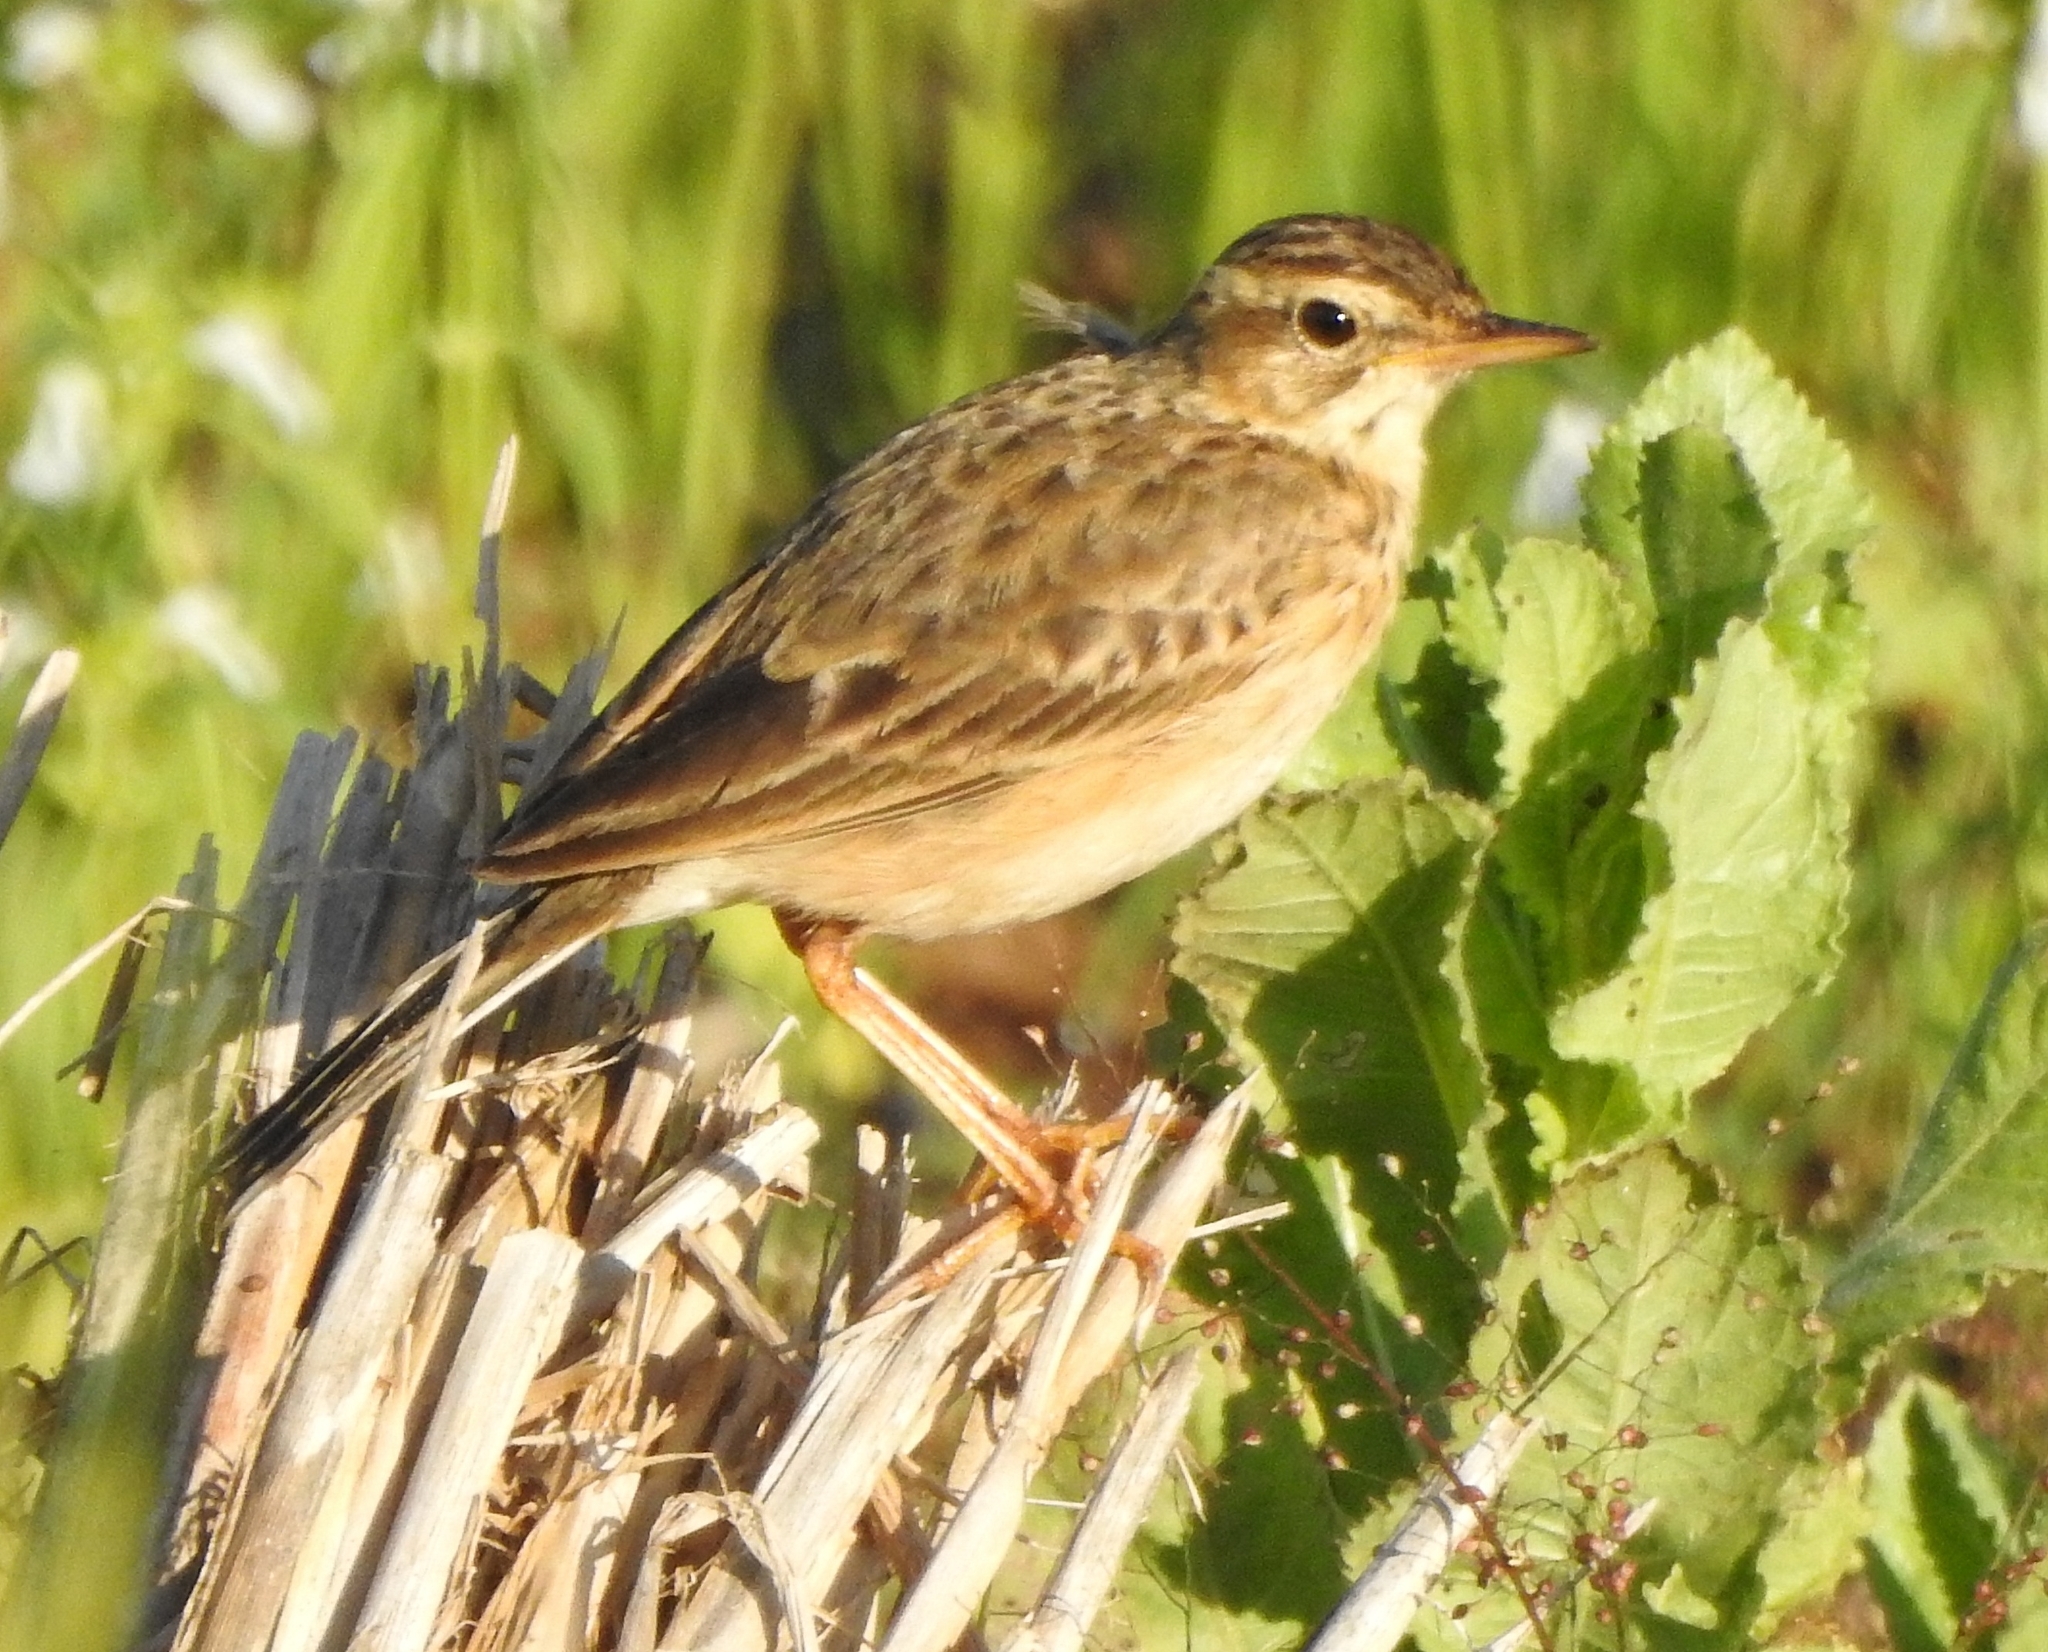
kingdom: Animalia
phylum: Chordata
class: Aves
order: Passeriformes
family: Motacillidae
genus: Anthus
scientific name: Anthus rufulus
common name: Paddyfield pipit
